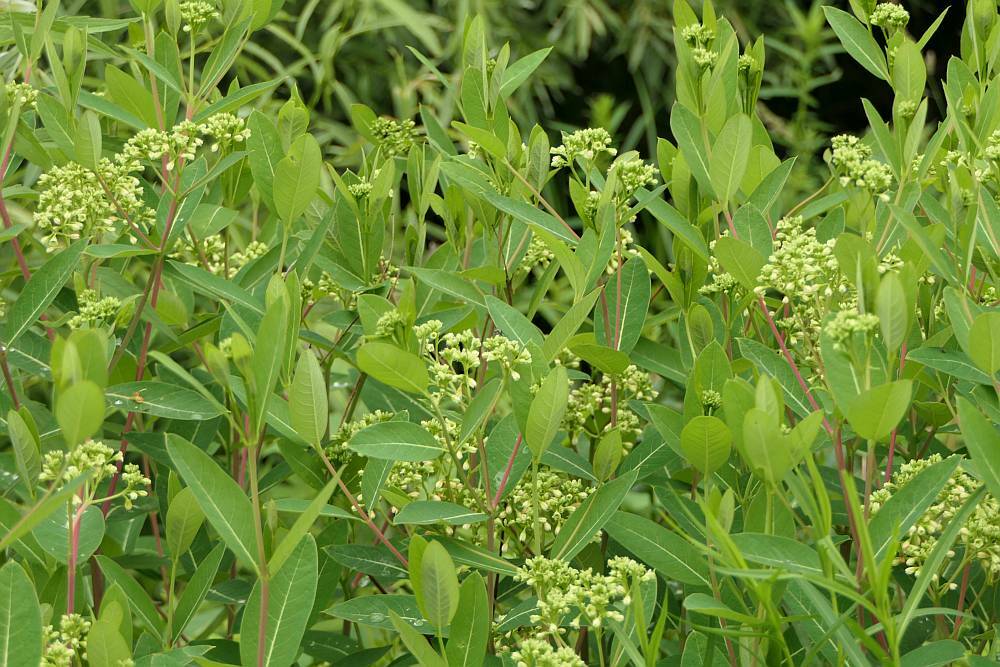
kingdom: Plantae
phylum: Tracheophyta
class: Magnoliopsida
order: Gentianales
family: Apocynaceae
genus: Apocynum
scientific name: Apocynum cannabinum
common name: Hemp dogbane
